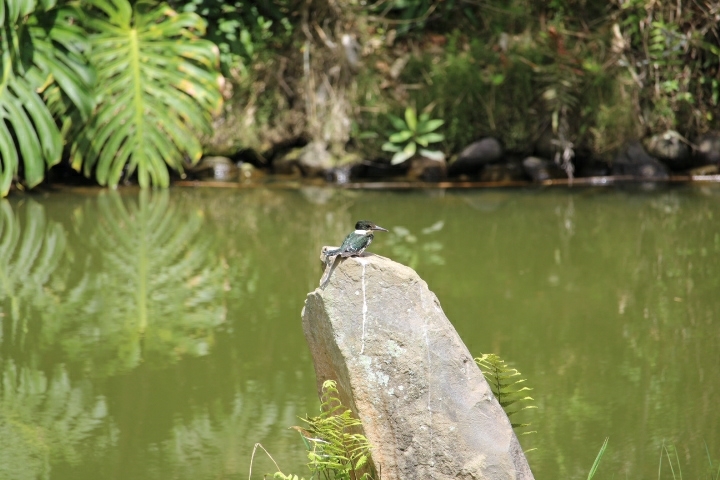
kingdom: Animalia
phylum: Chordata
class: Aves
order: Coraciiformes
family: Alcedinidae
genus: Chloroceryle
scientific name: Chloroceryle americana
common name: Green kingfisher
